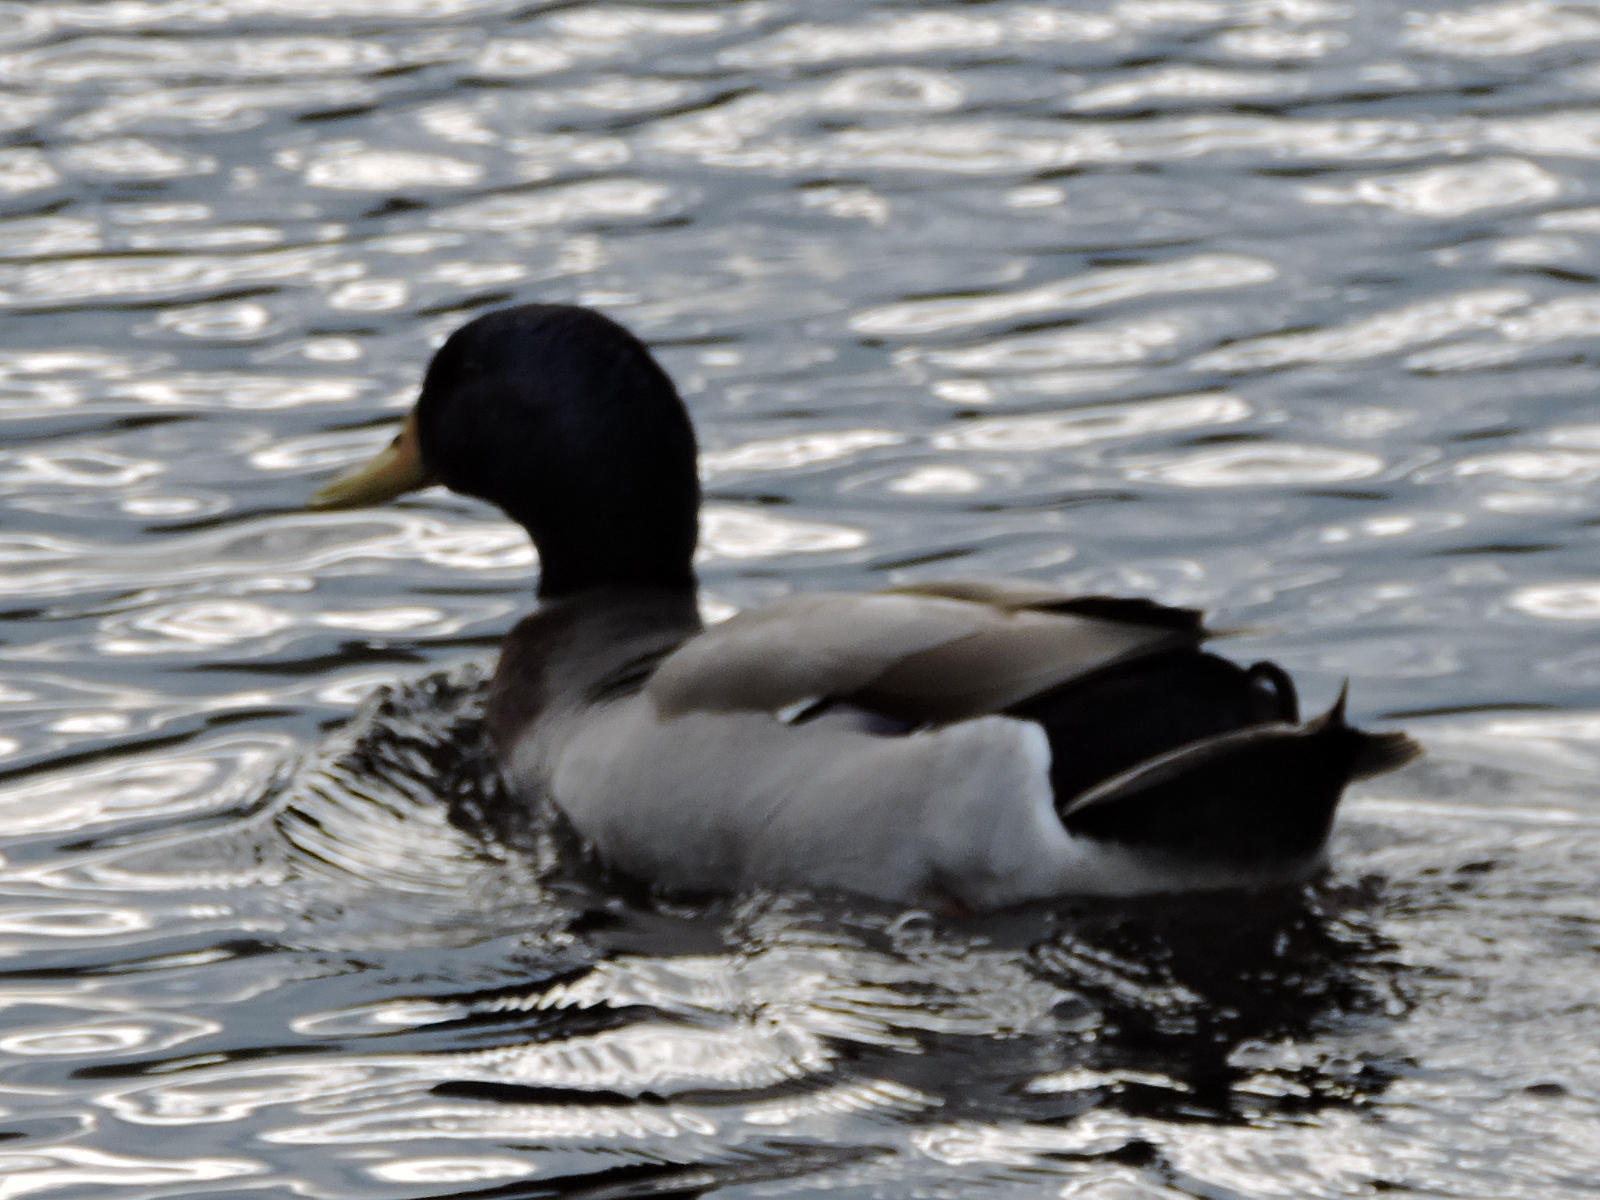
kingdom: Animalia
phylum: Chordata
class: Aves
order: Anseriformes
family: Anatidae
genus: Anas
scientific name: Anas platyrhynchos
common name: Mallard
